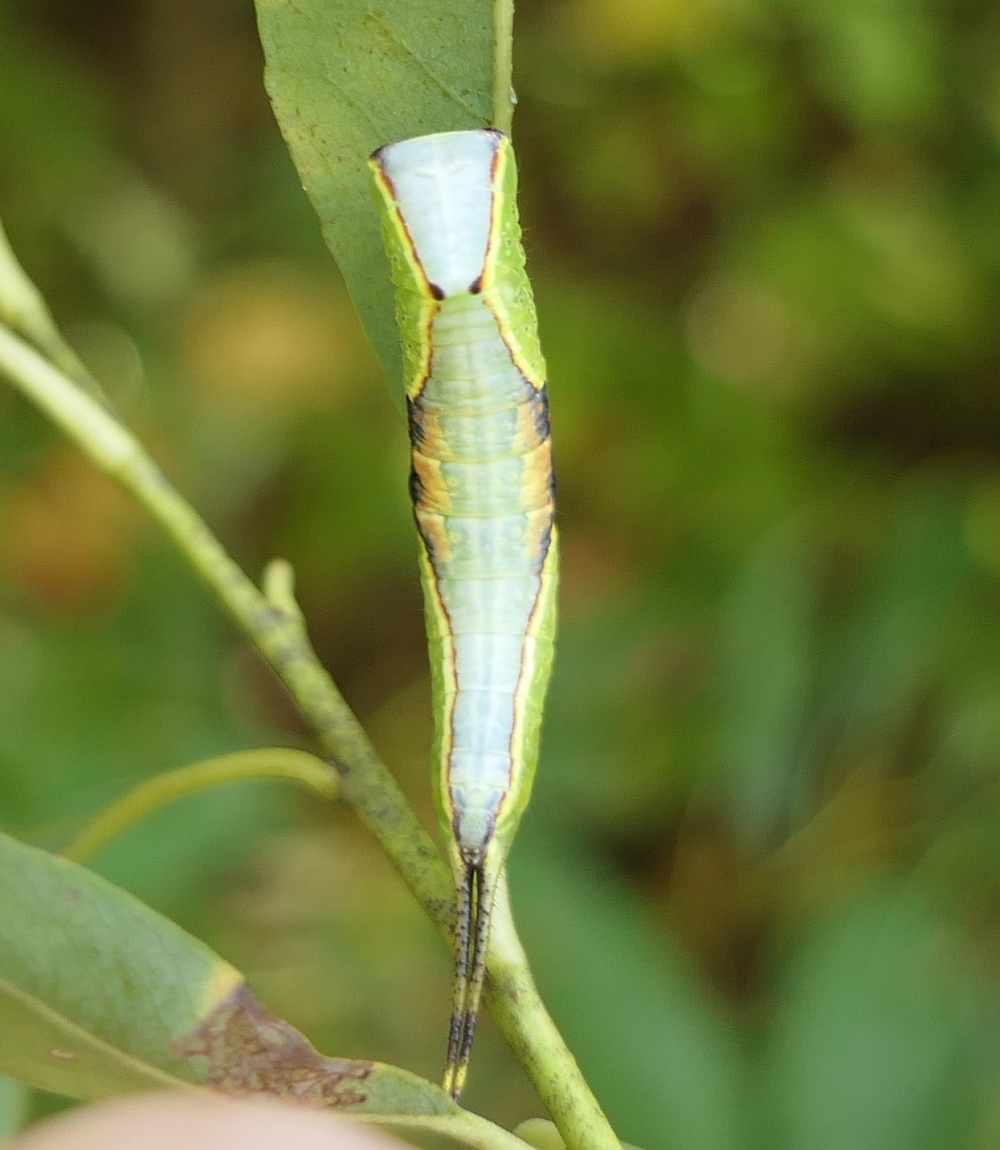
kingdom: Animalia
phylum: Arthropoda
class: Insecta
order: Lepidoptera
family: Notodontidae
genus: Furcula
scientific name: Furcula occidentalis
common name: Western furcula moth
